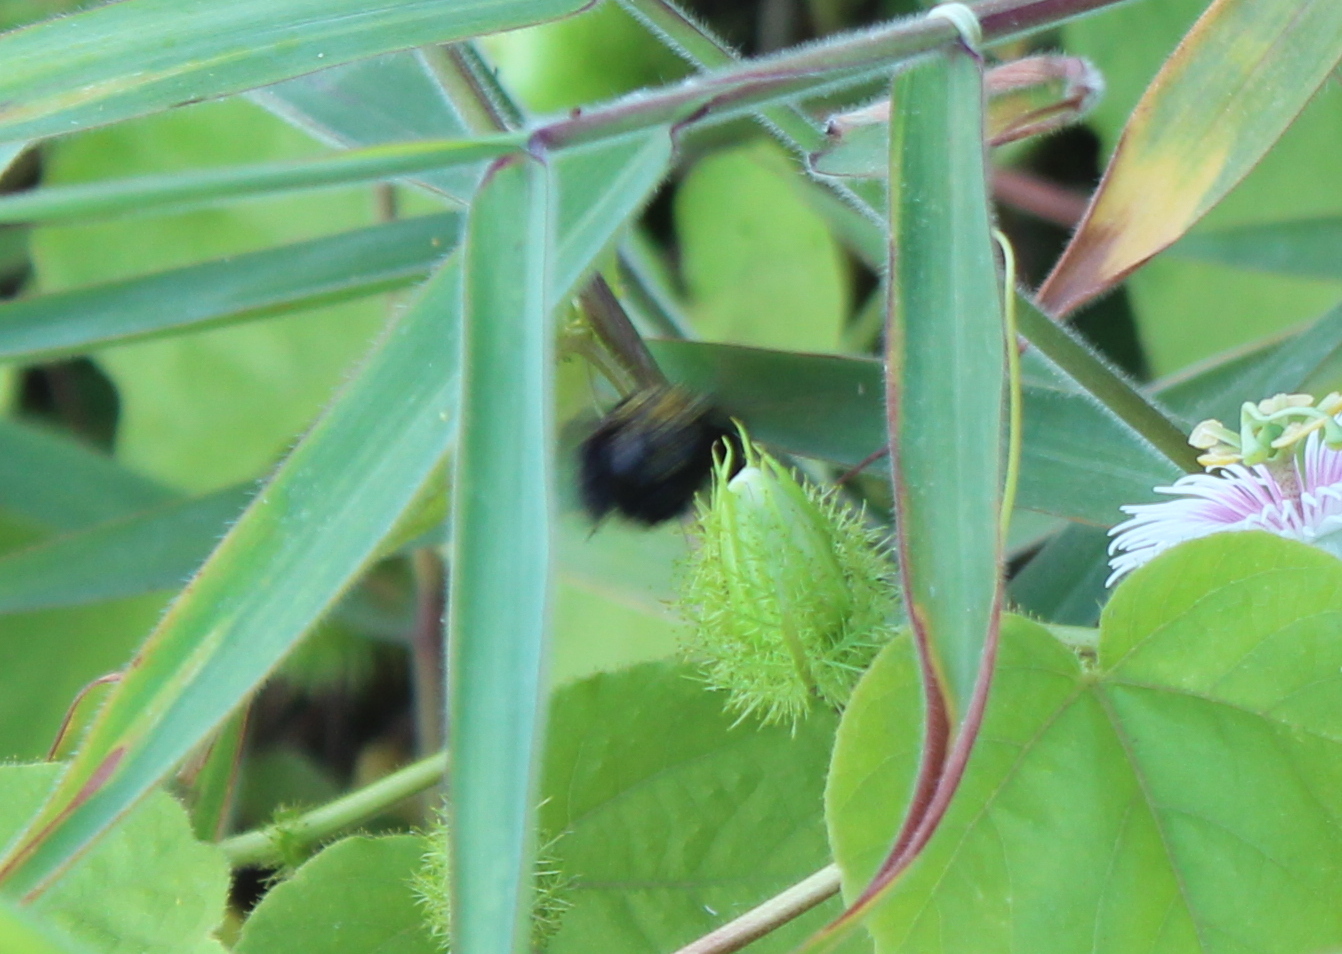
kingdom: Animalia
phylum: Arthropoda
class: Insecta
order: Hymenoptera
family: Apidae
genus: Xylocopa
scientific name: Xylocopa sonorina
